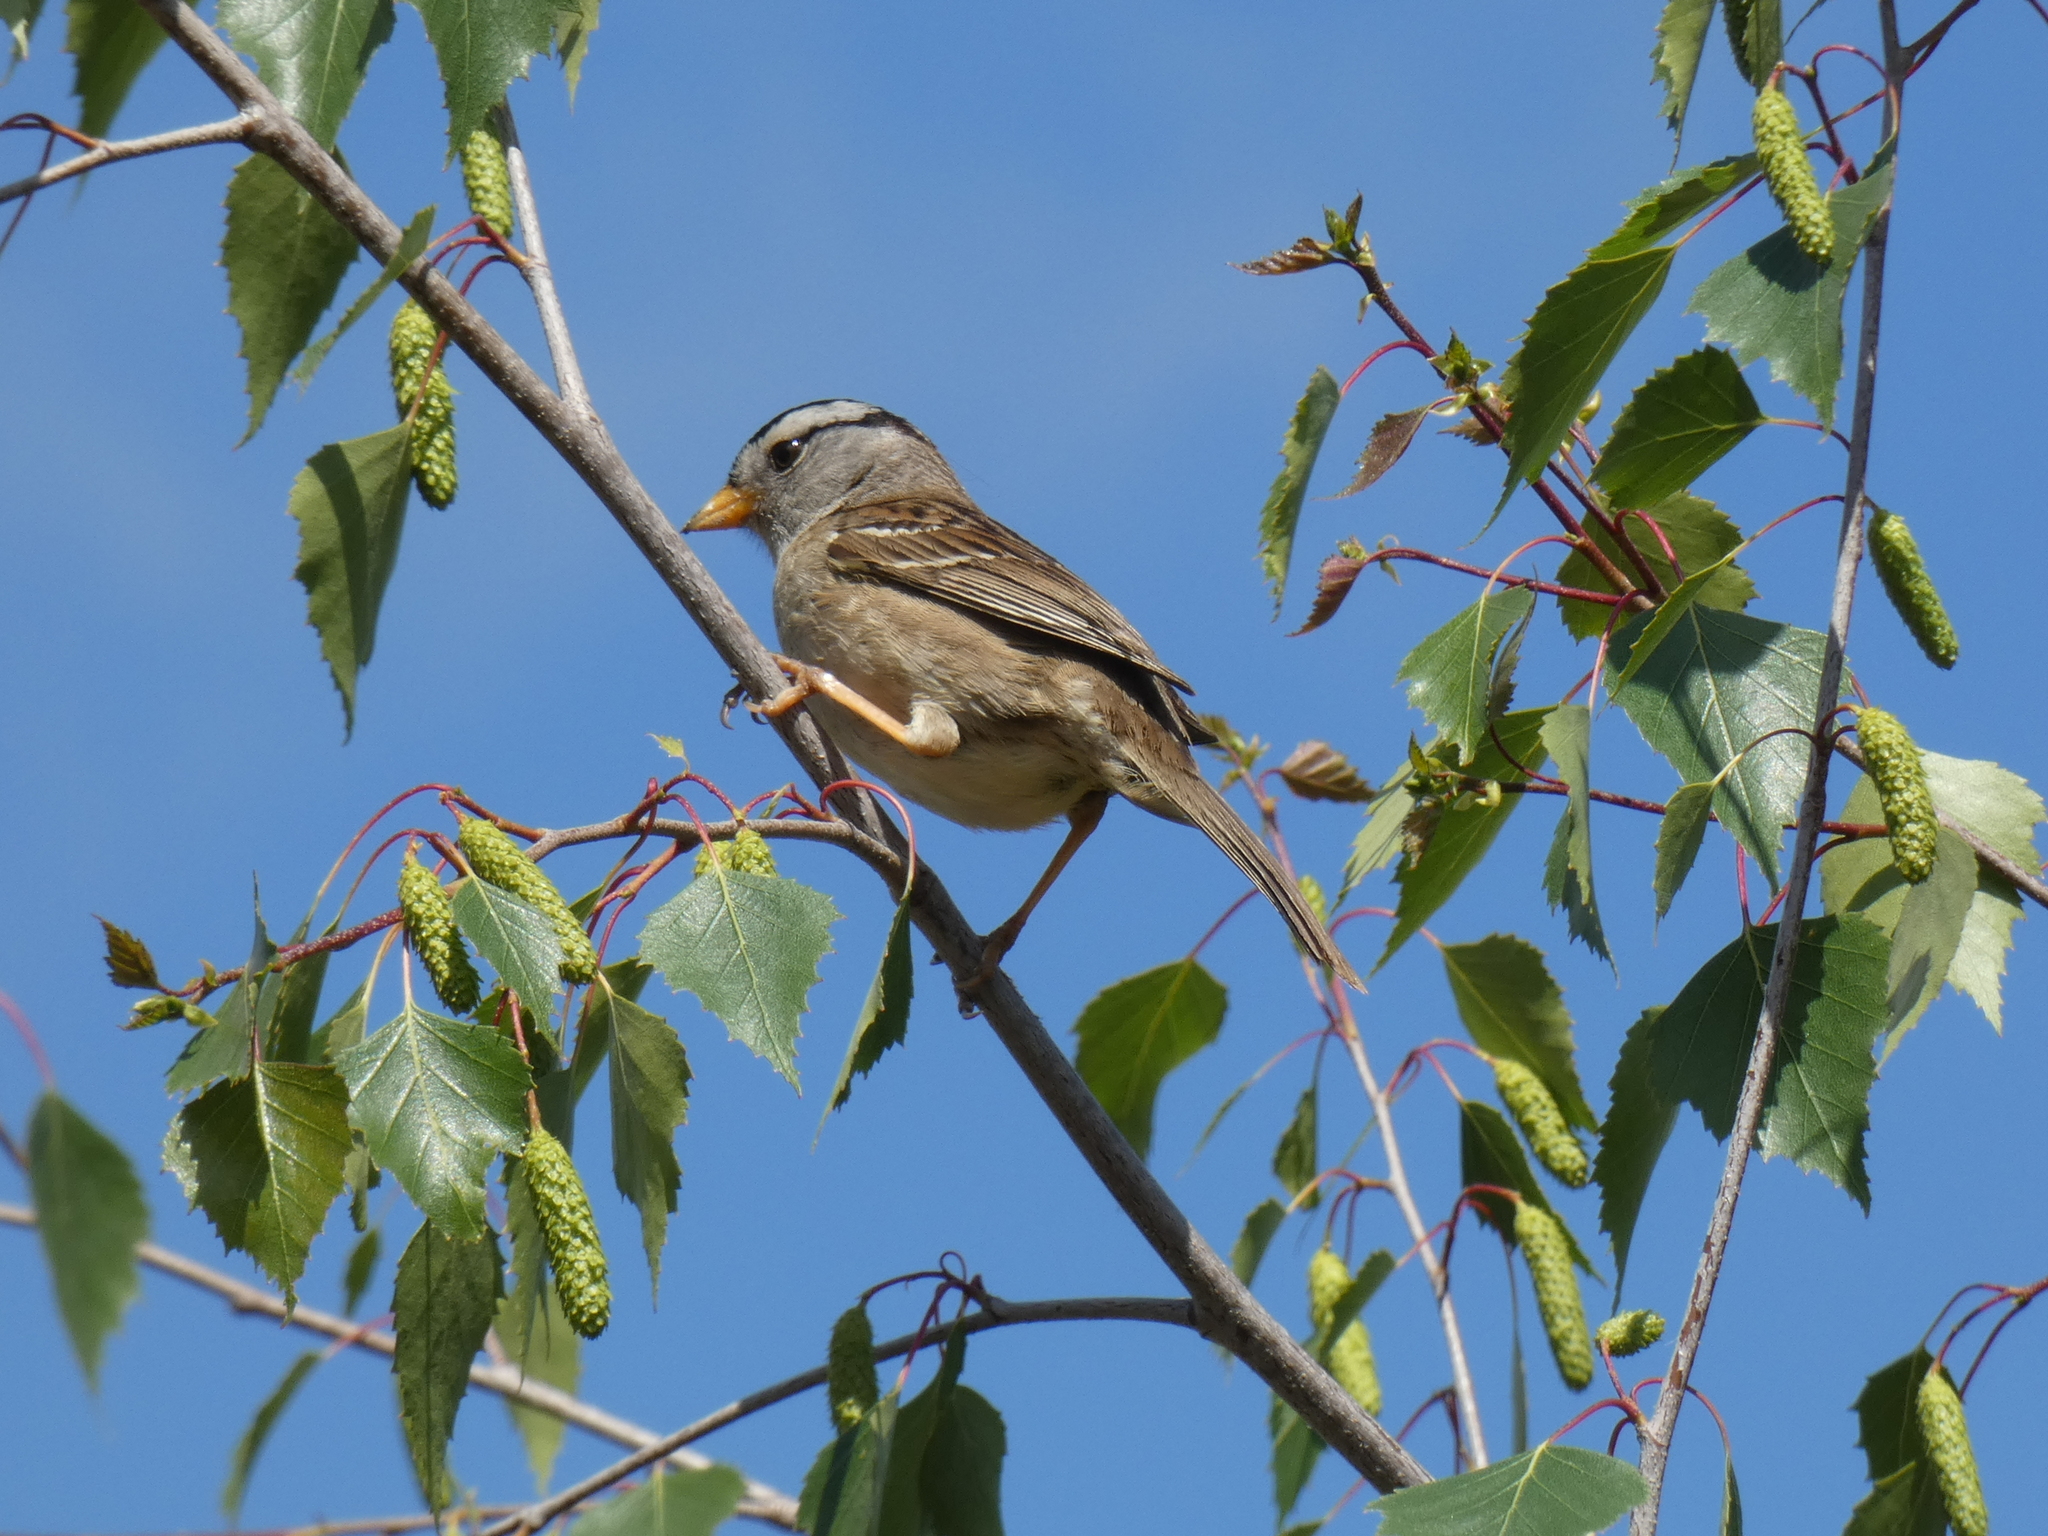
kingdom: Animalia
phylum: Chordata
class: Aves
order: Passeriformes
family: Passerellidae
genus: Zonotrichia
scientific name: Zonotrichia leucophrys
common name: White-crowned sparrow
